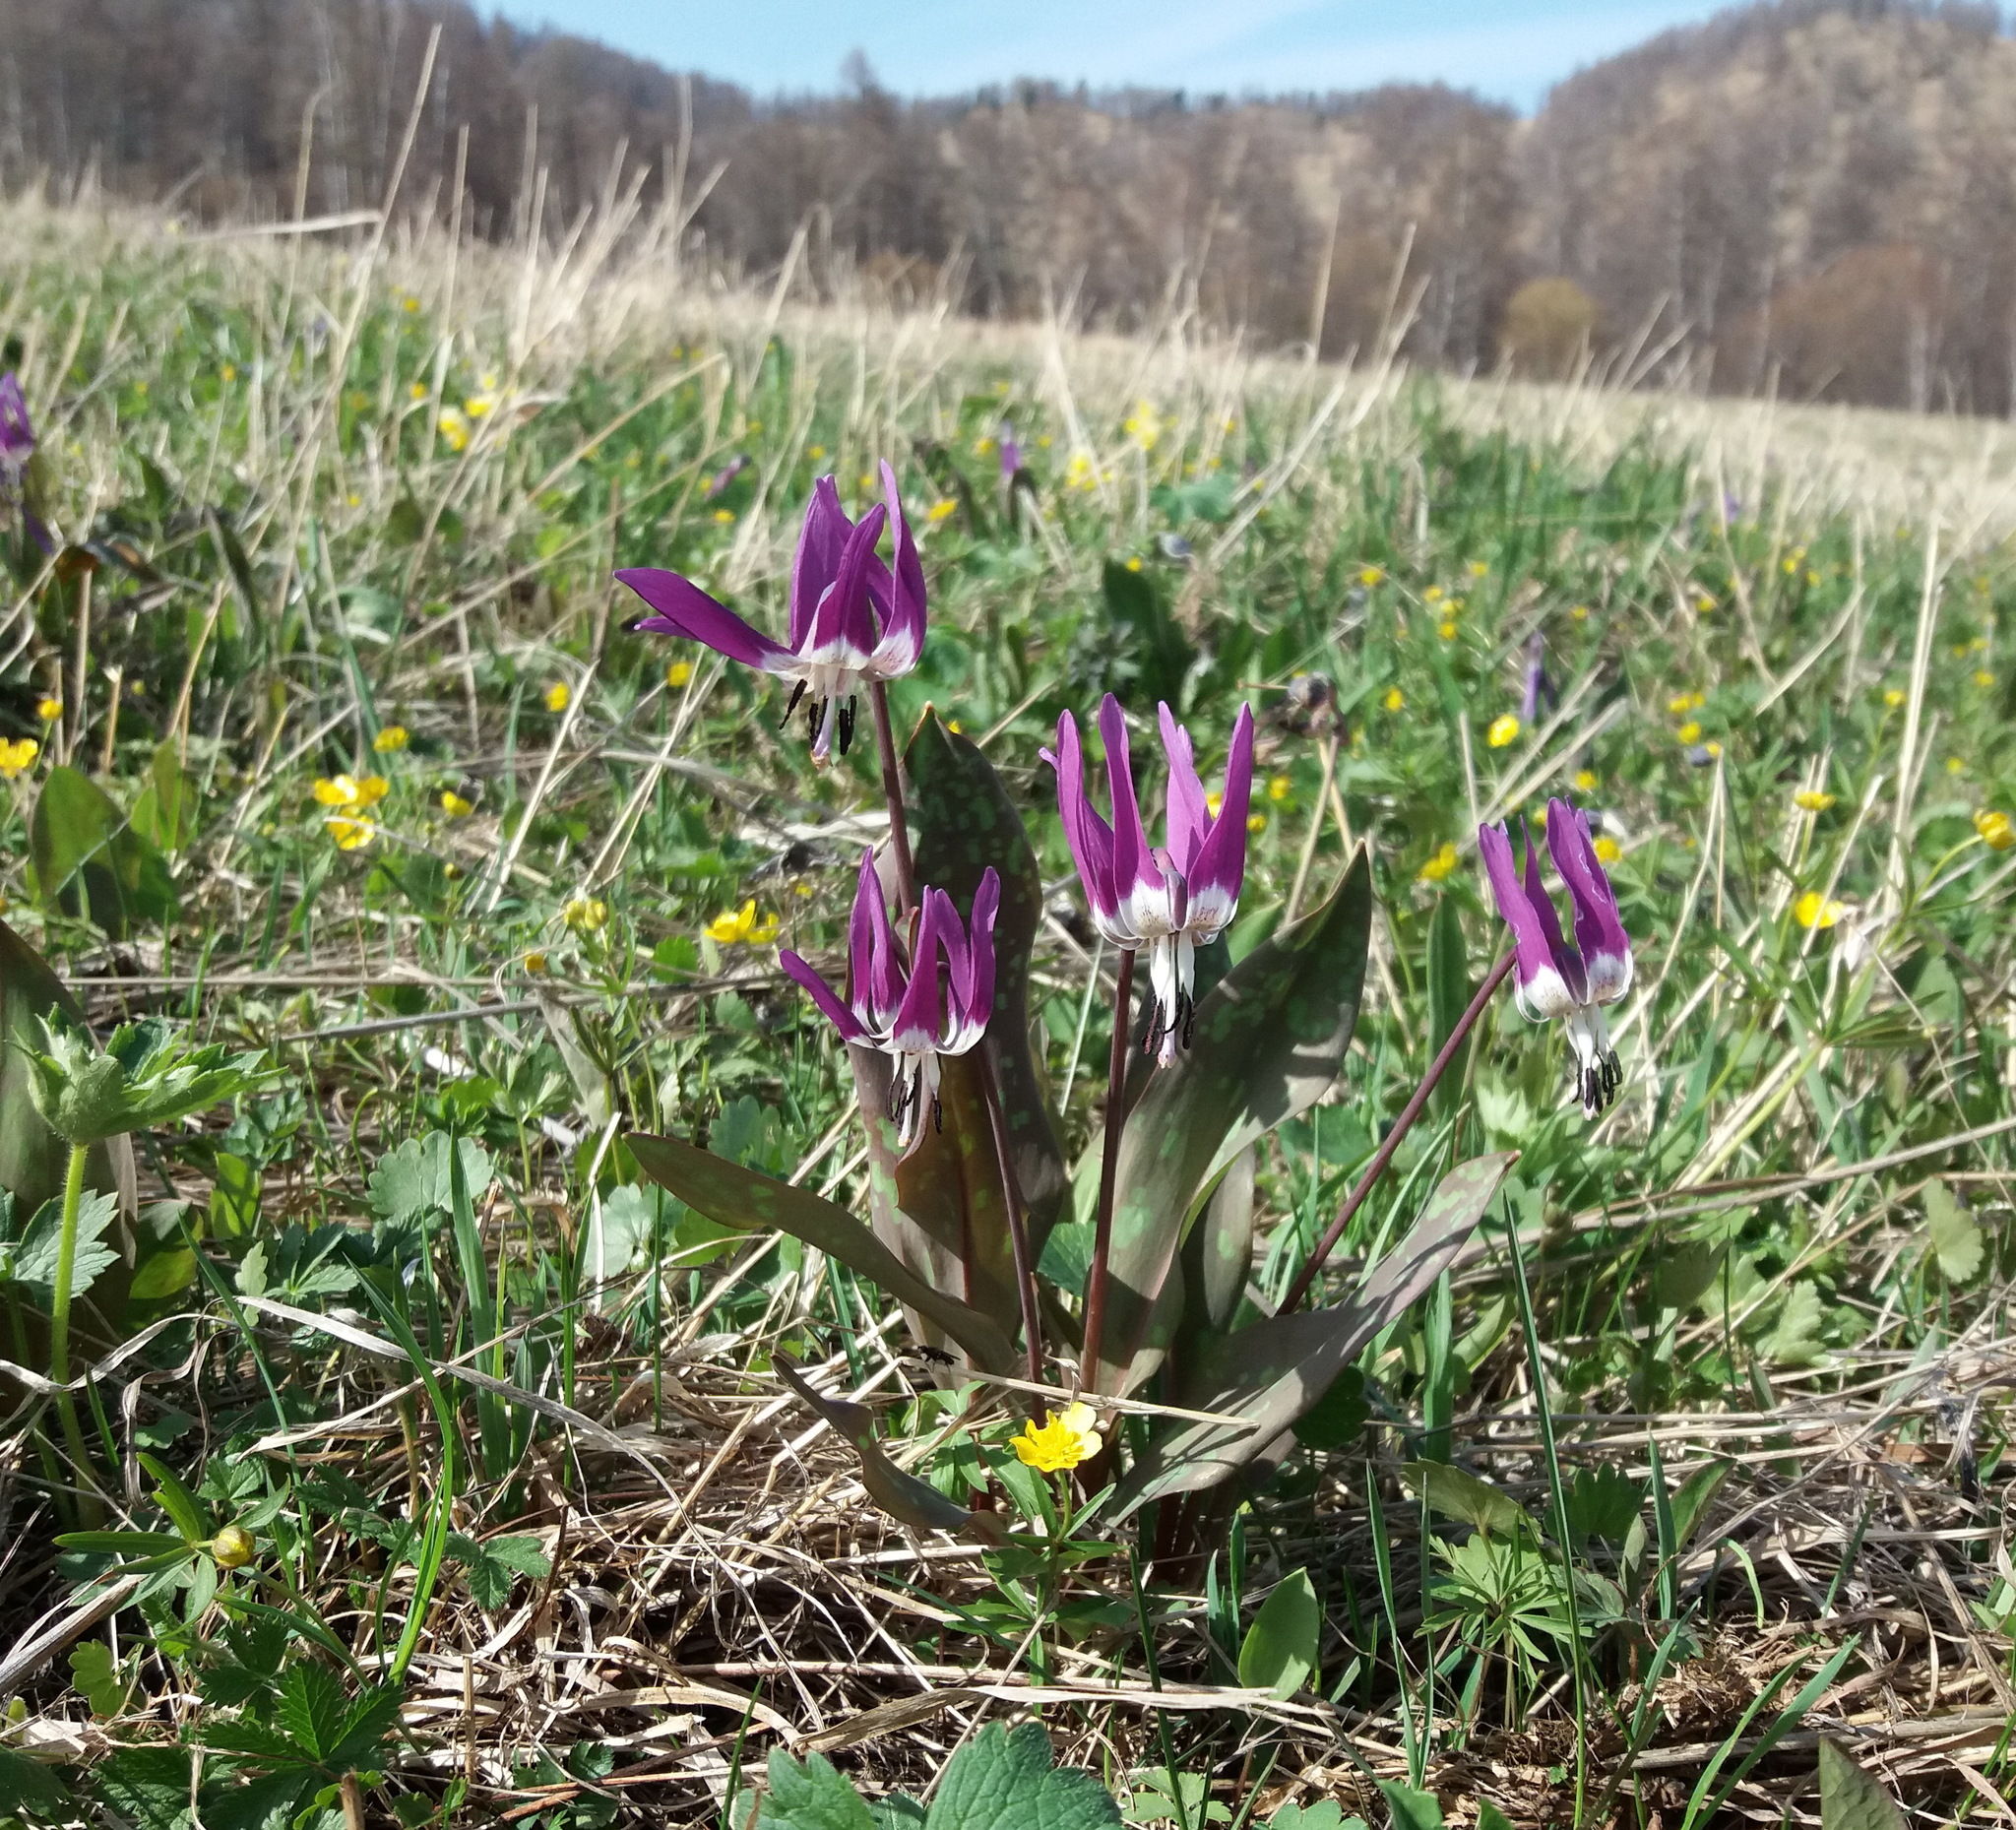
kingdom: Plantae
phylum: Tracheophyta
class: Liliopsida
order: Liliales
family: Liliaceae
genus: Erythronium
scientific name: Erythronium sulevii
